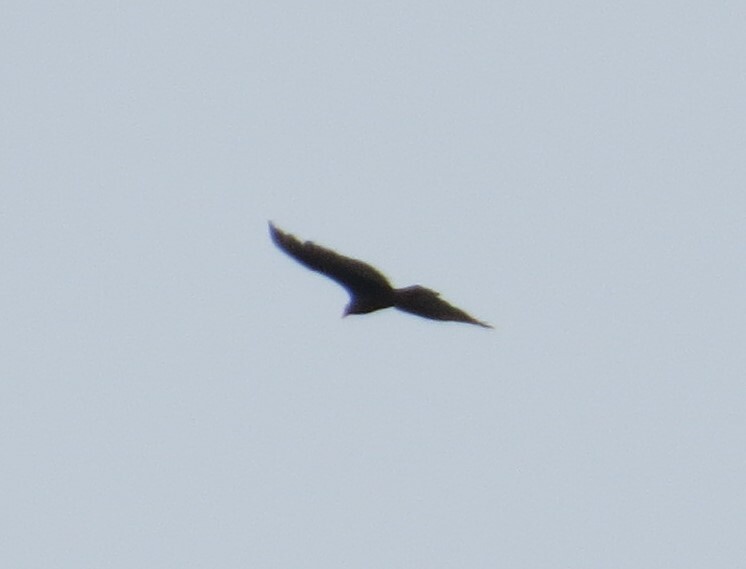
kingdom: Animalia
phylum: Chordata
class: Aves
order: Accipitriformes
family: Cathartidae
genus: Cathartes
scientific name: Cathartes aura
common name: Turkey vulture
